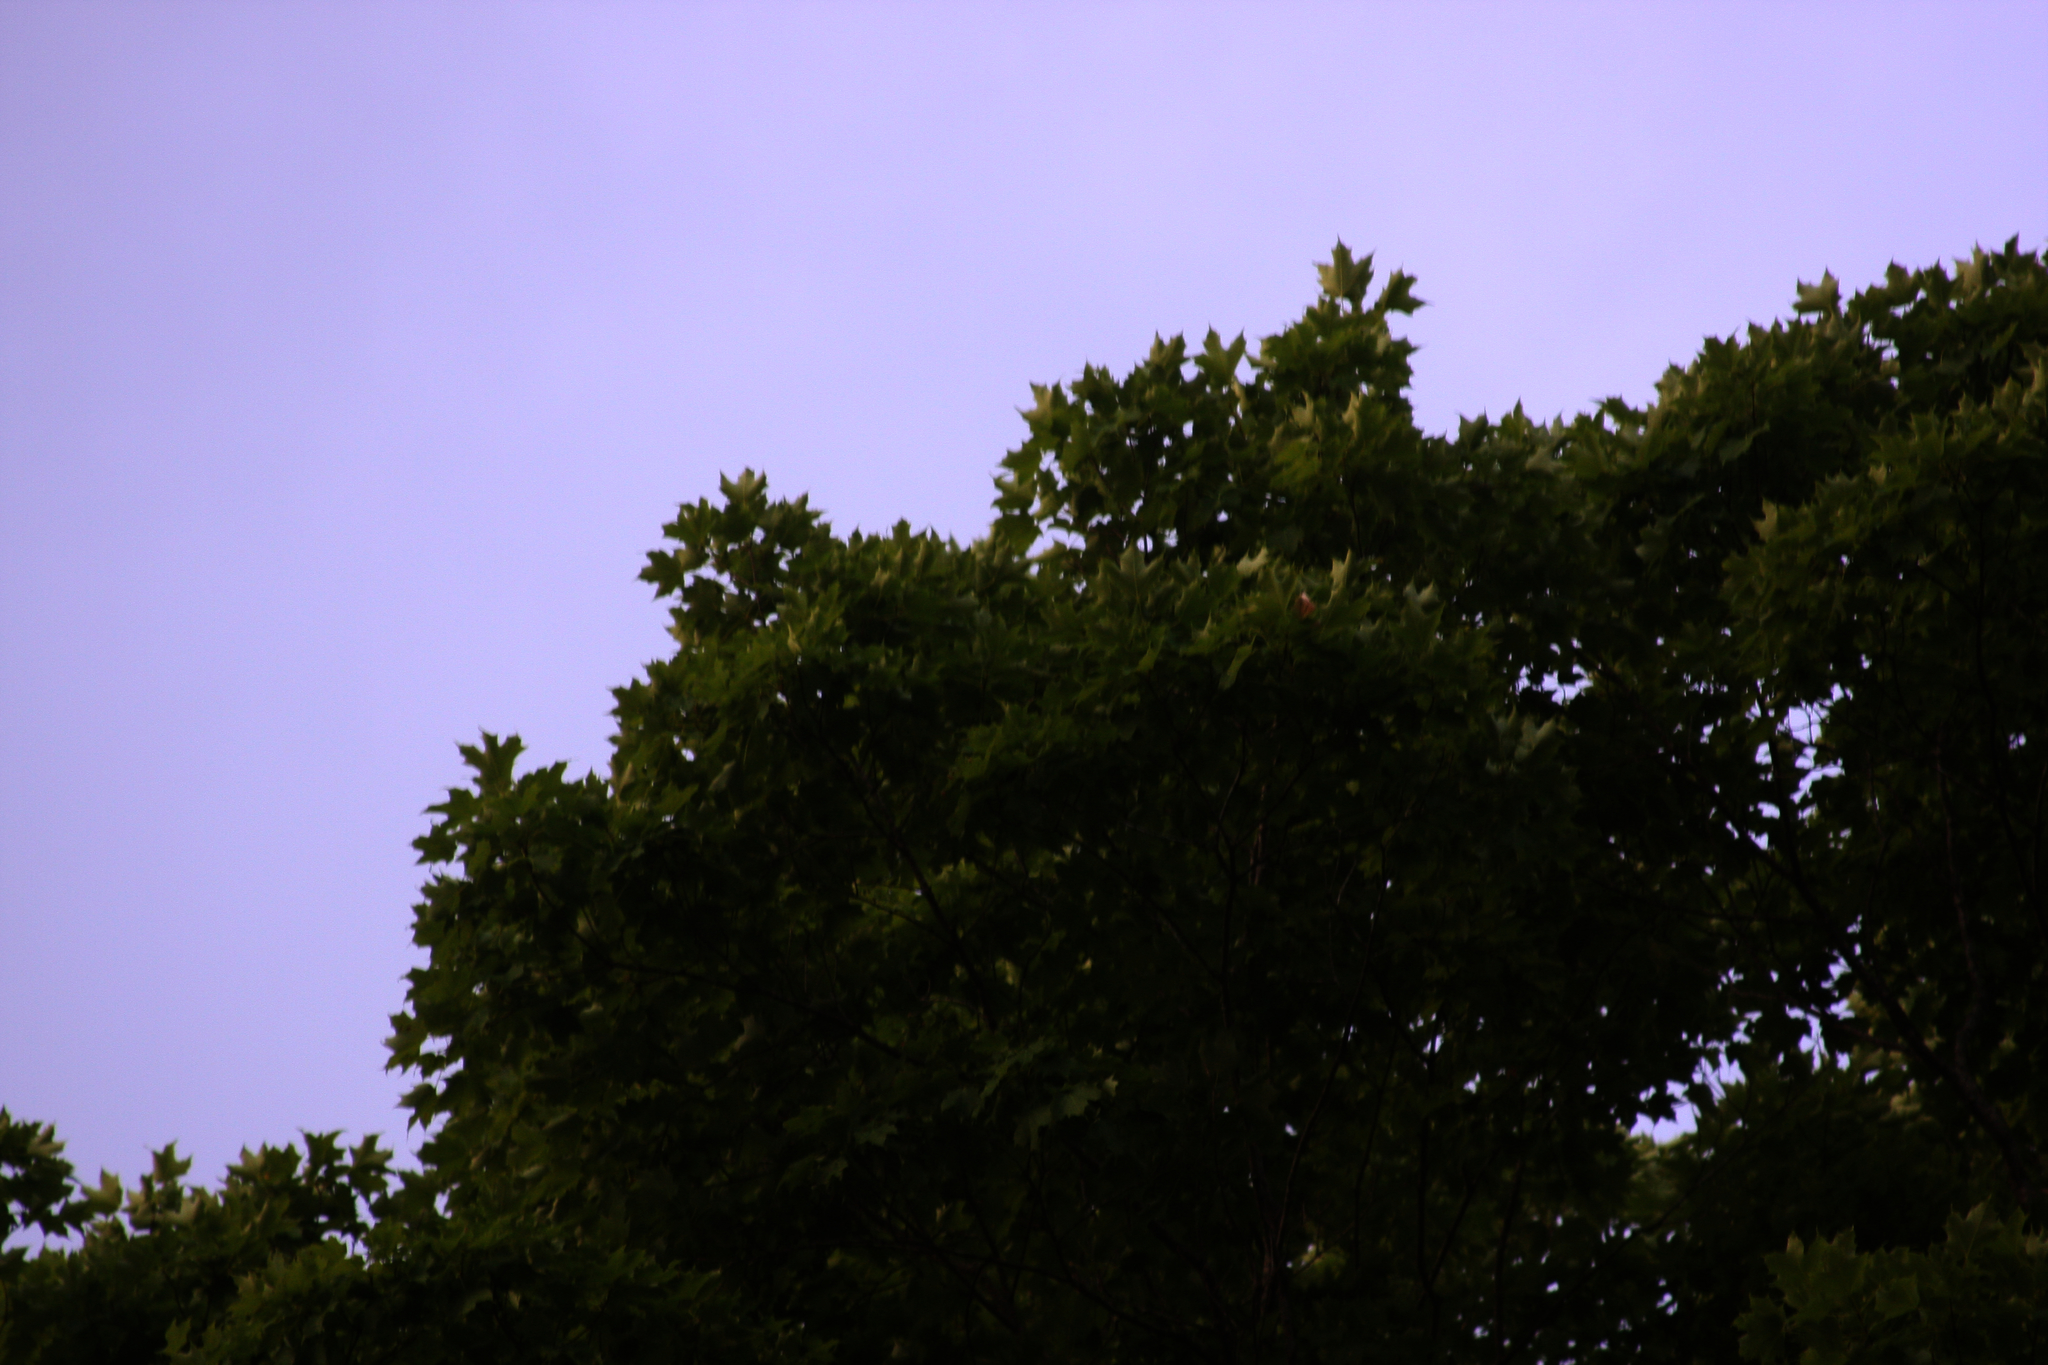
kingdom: Plantae
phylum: Tracheophyta
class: Magnoliopsida
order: Sapindales
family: Sapindaceae
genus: Acer
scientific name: Acer rubrum
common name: Red maple
